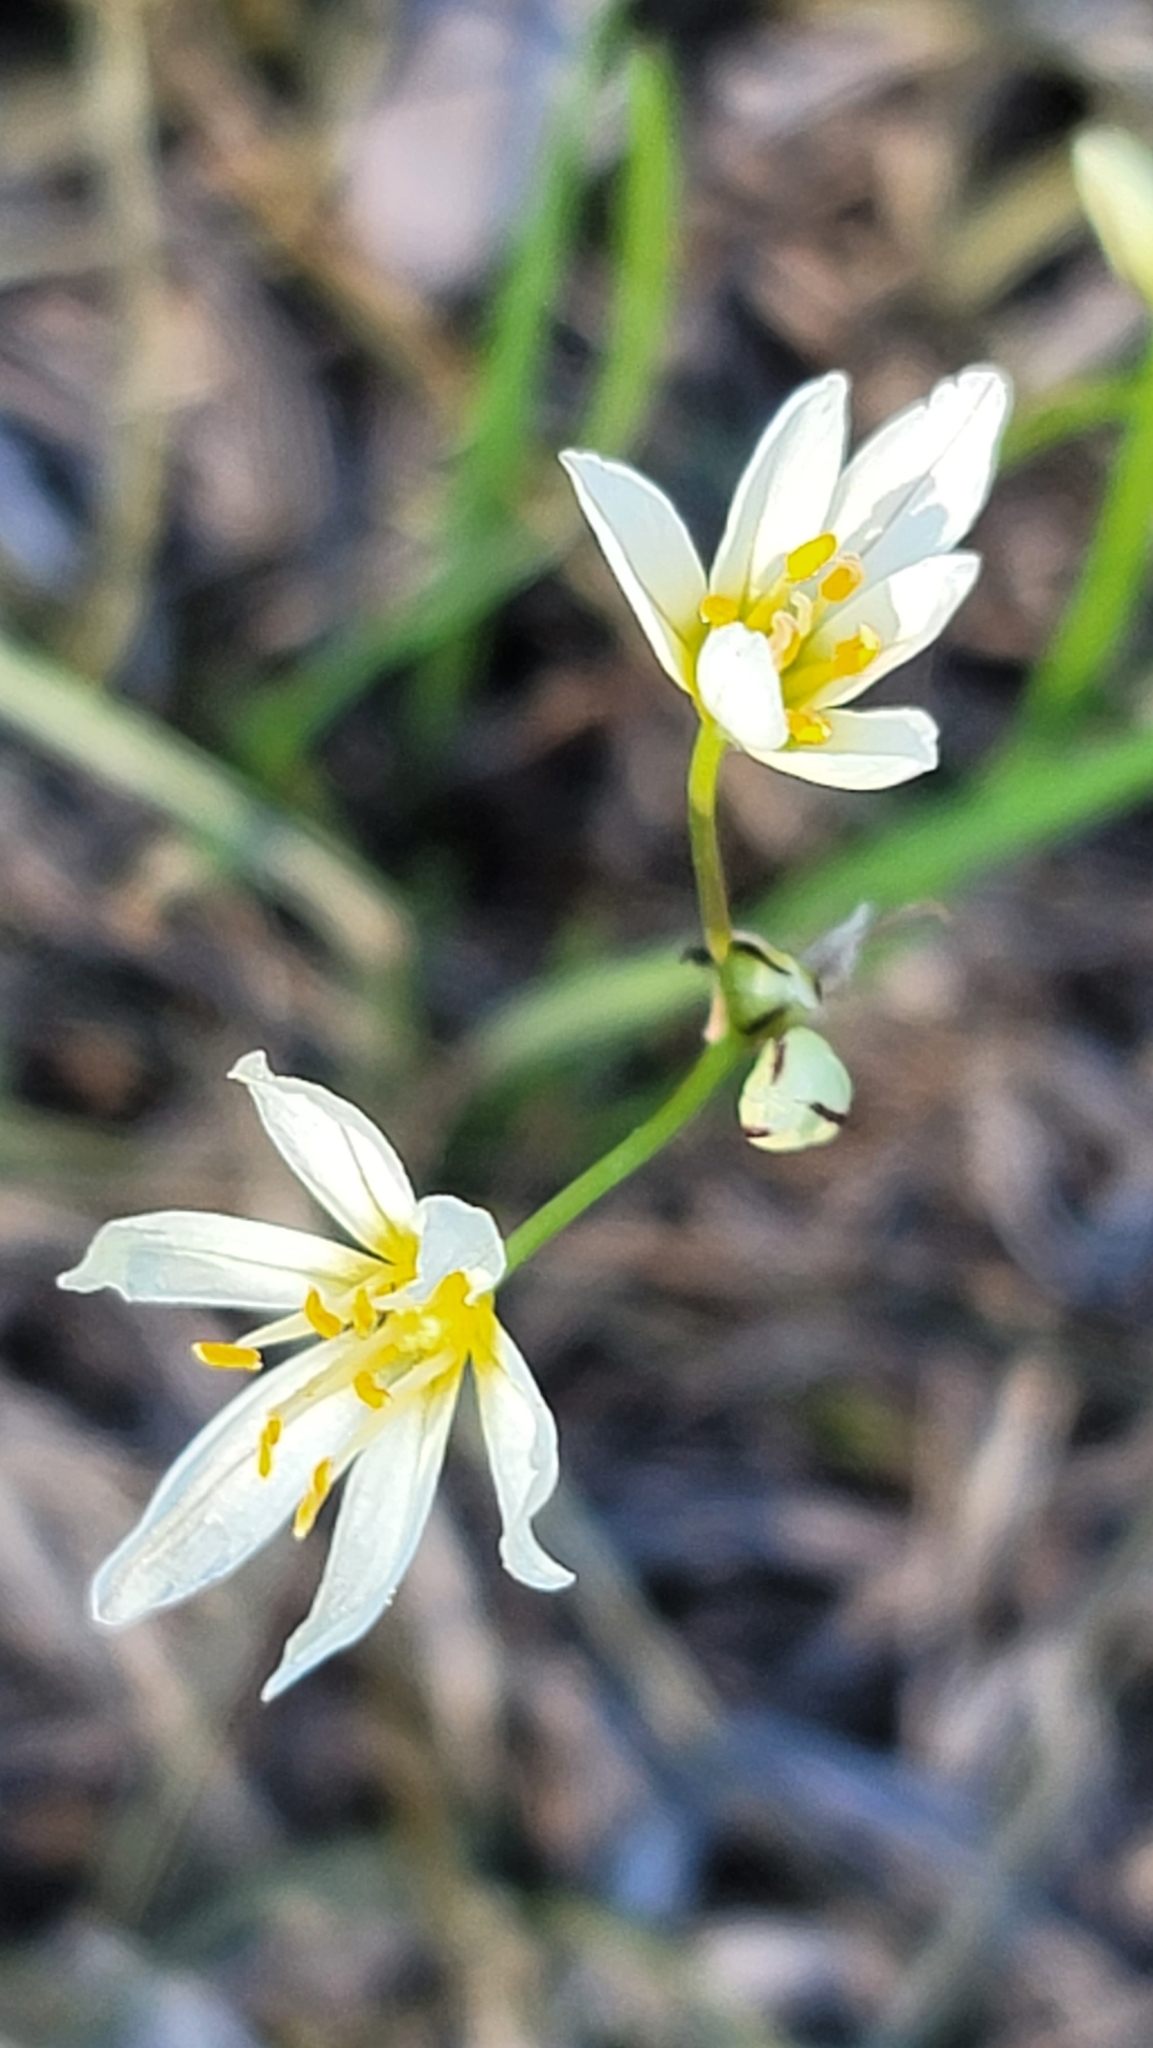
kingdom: Plantae
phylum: Tracheophyta
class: Liliopsida
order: Asparagales
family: Amaryllidaceae
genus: Nothoscordum
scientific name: Nothoscordum bivalve
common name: Crow-poison
